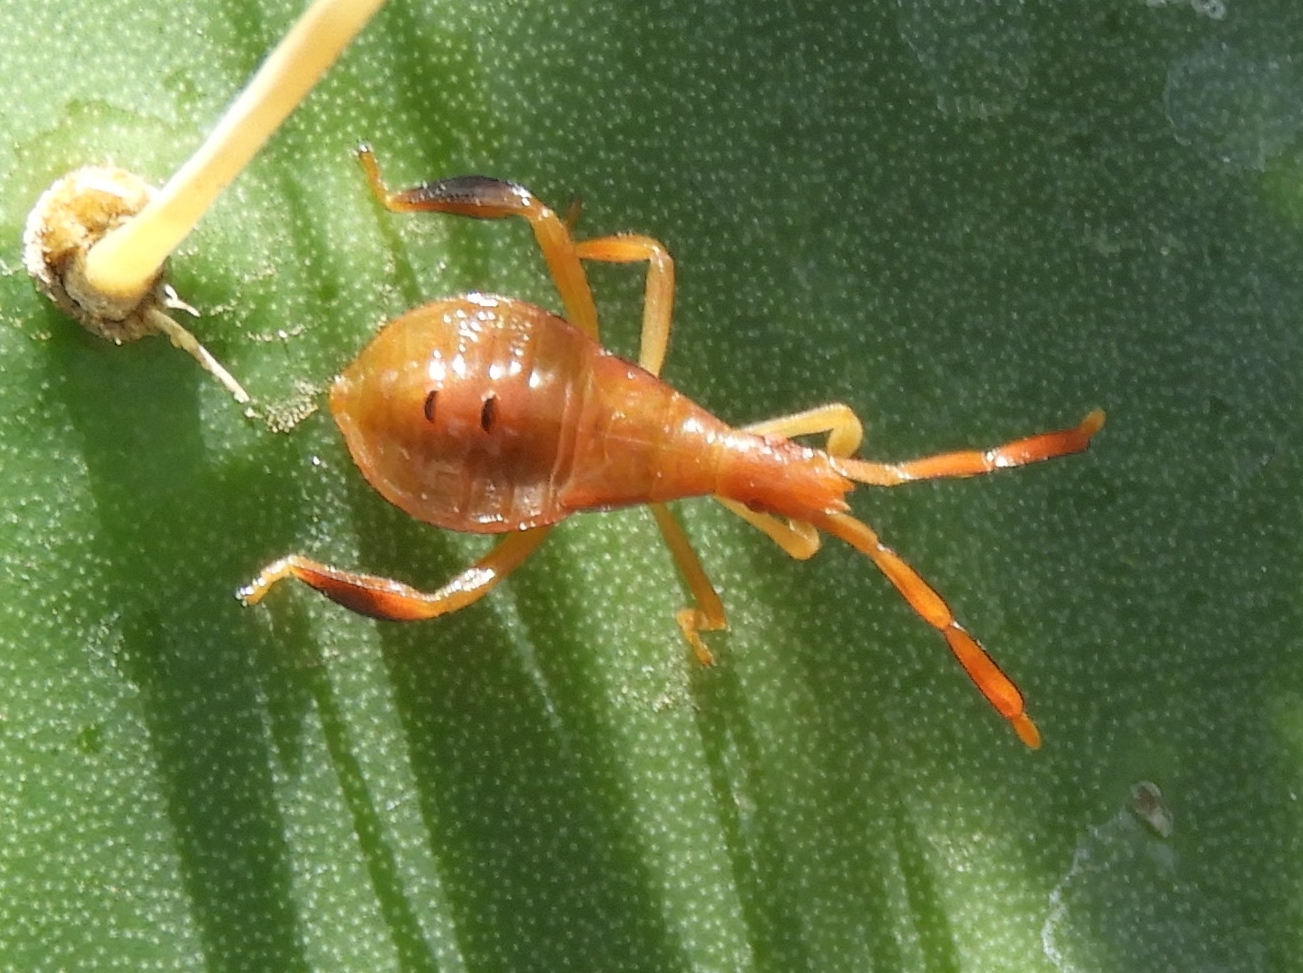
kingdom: Animalia
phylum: Arthropoda
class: Insecta
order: Hemiptera
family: Coreidae
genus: Chelinidea
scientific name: Chelinidea vittiger
